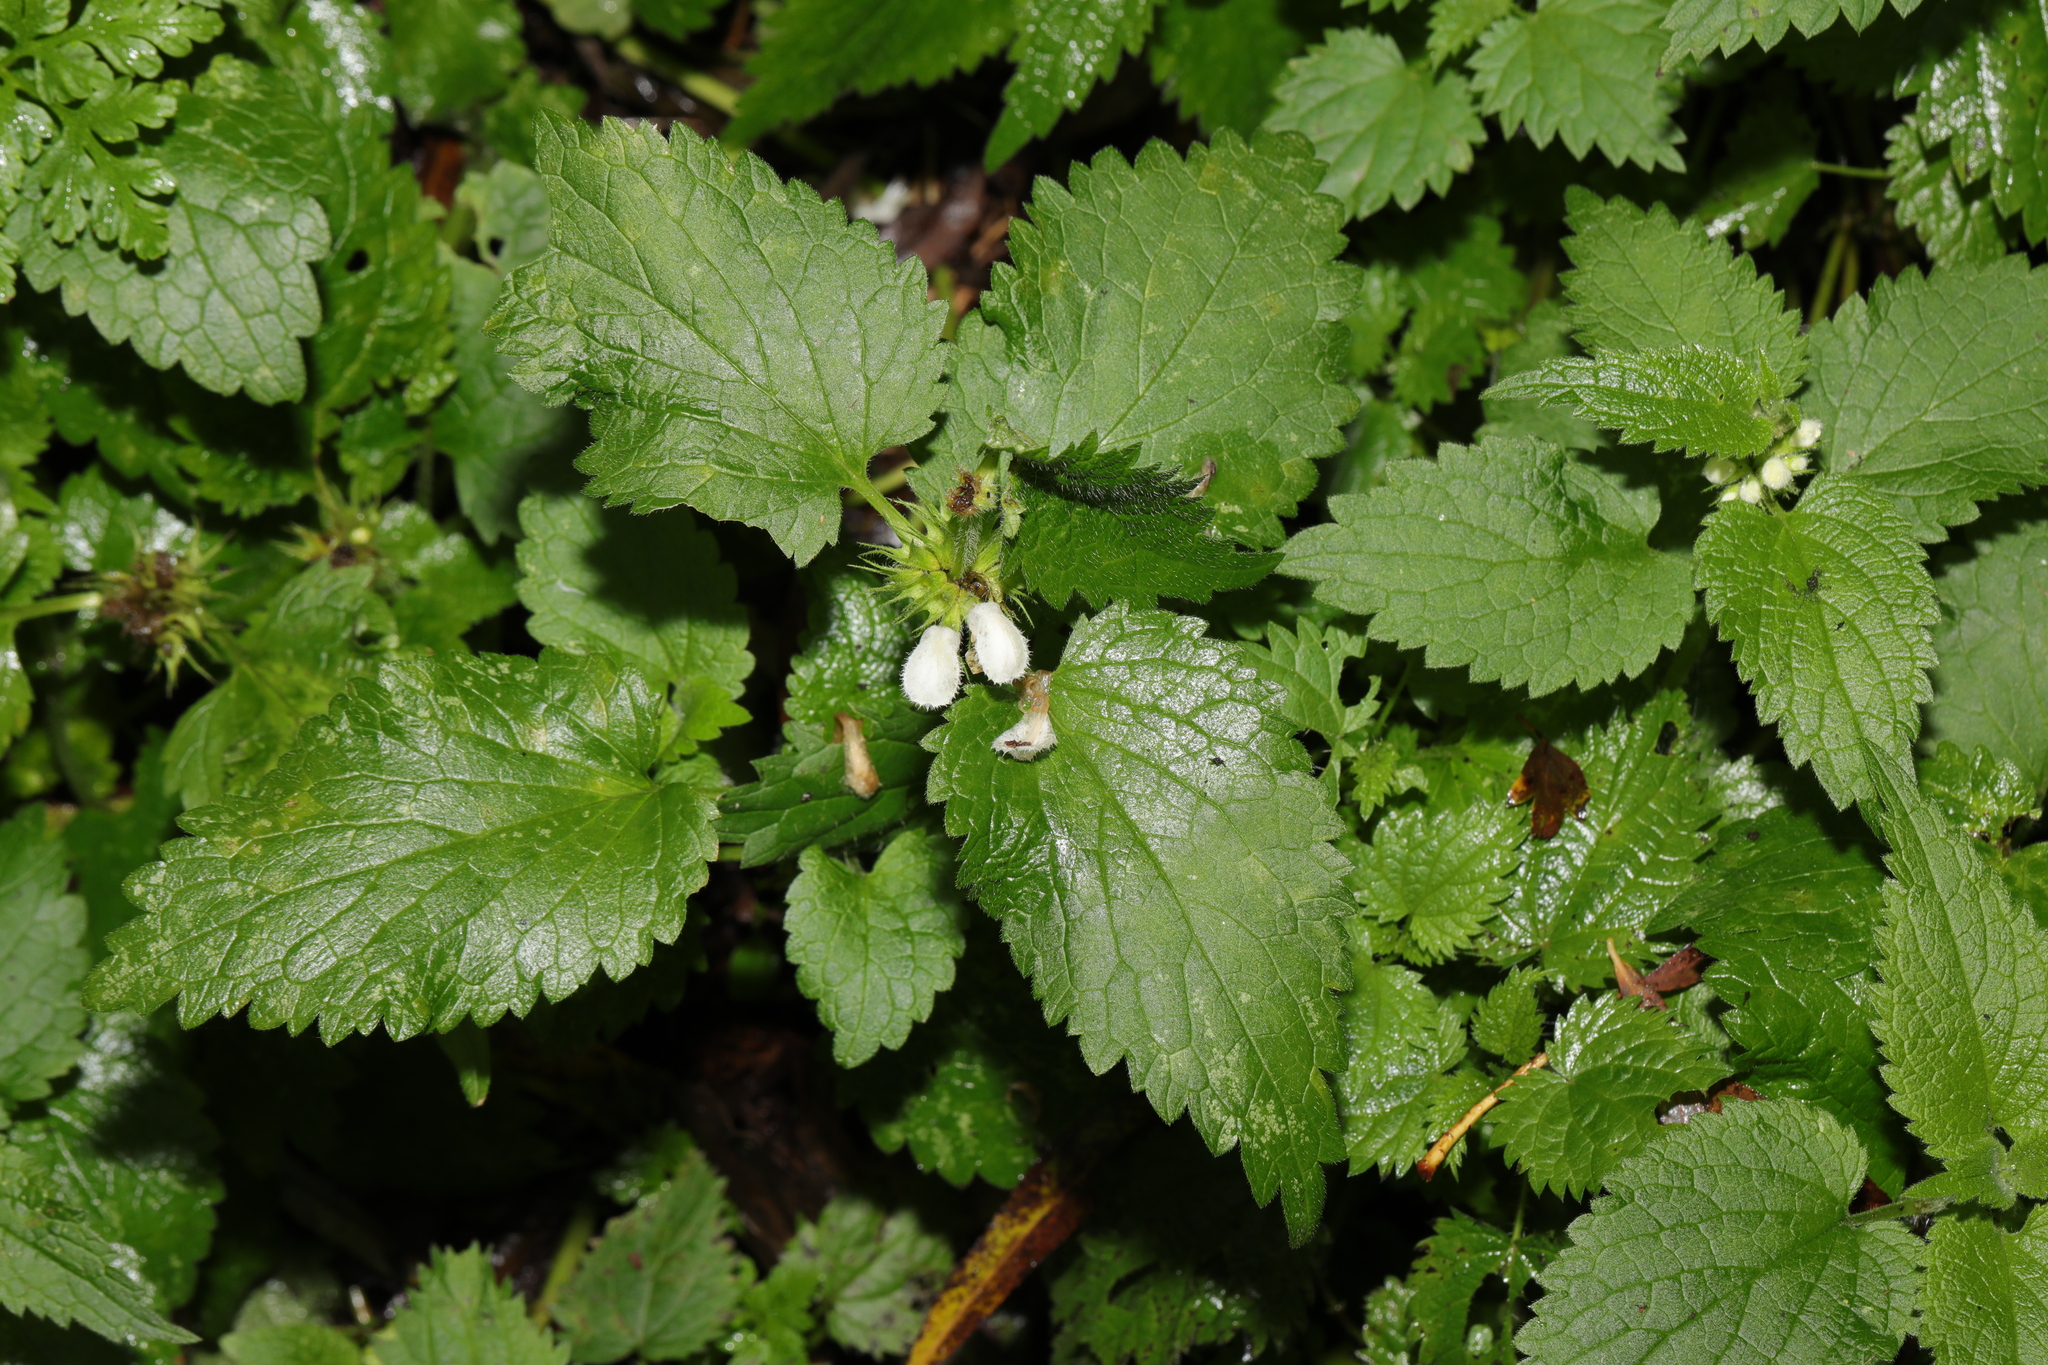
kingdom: Plantae
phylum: Tracheophyta
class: Magnoliopsida
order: Lamiales
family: Lamiaceae
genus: Lamium
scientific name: Lamium album
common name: White dead-nettle
